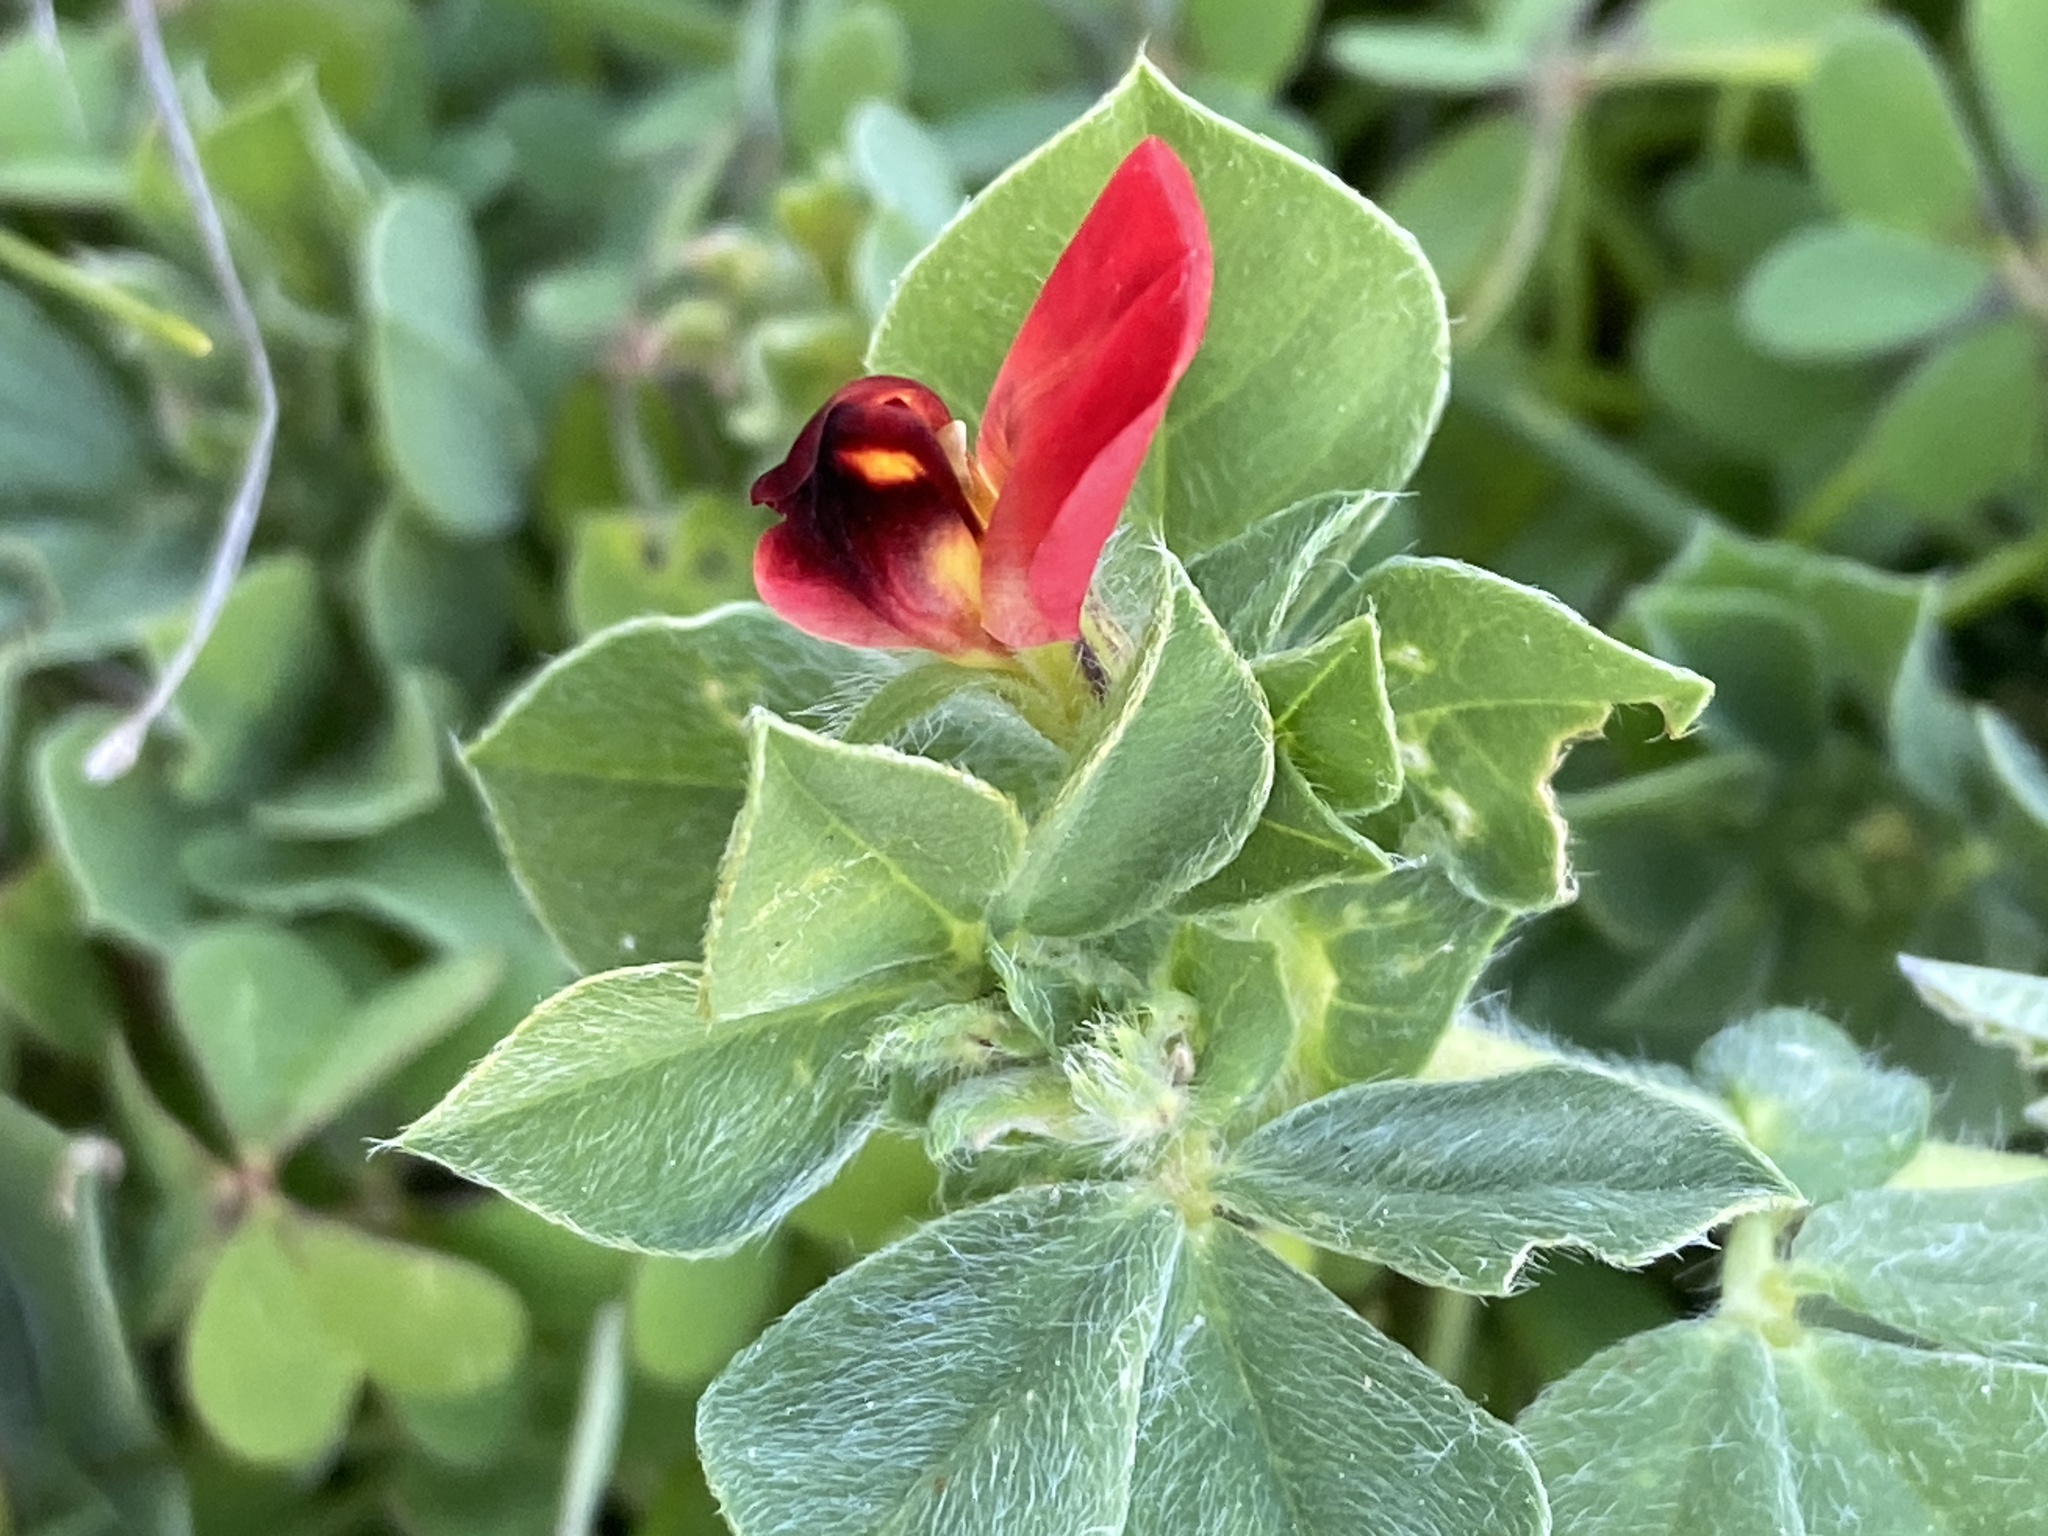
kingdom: Plantae
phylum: Tracheophyta
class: Magnoliopsida
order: Fabales
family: Fabaceae
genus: Lotus
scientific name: Lotus tetragonolobus
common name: Asparagus-pea
